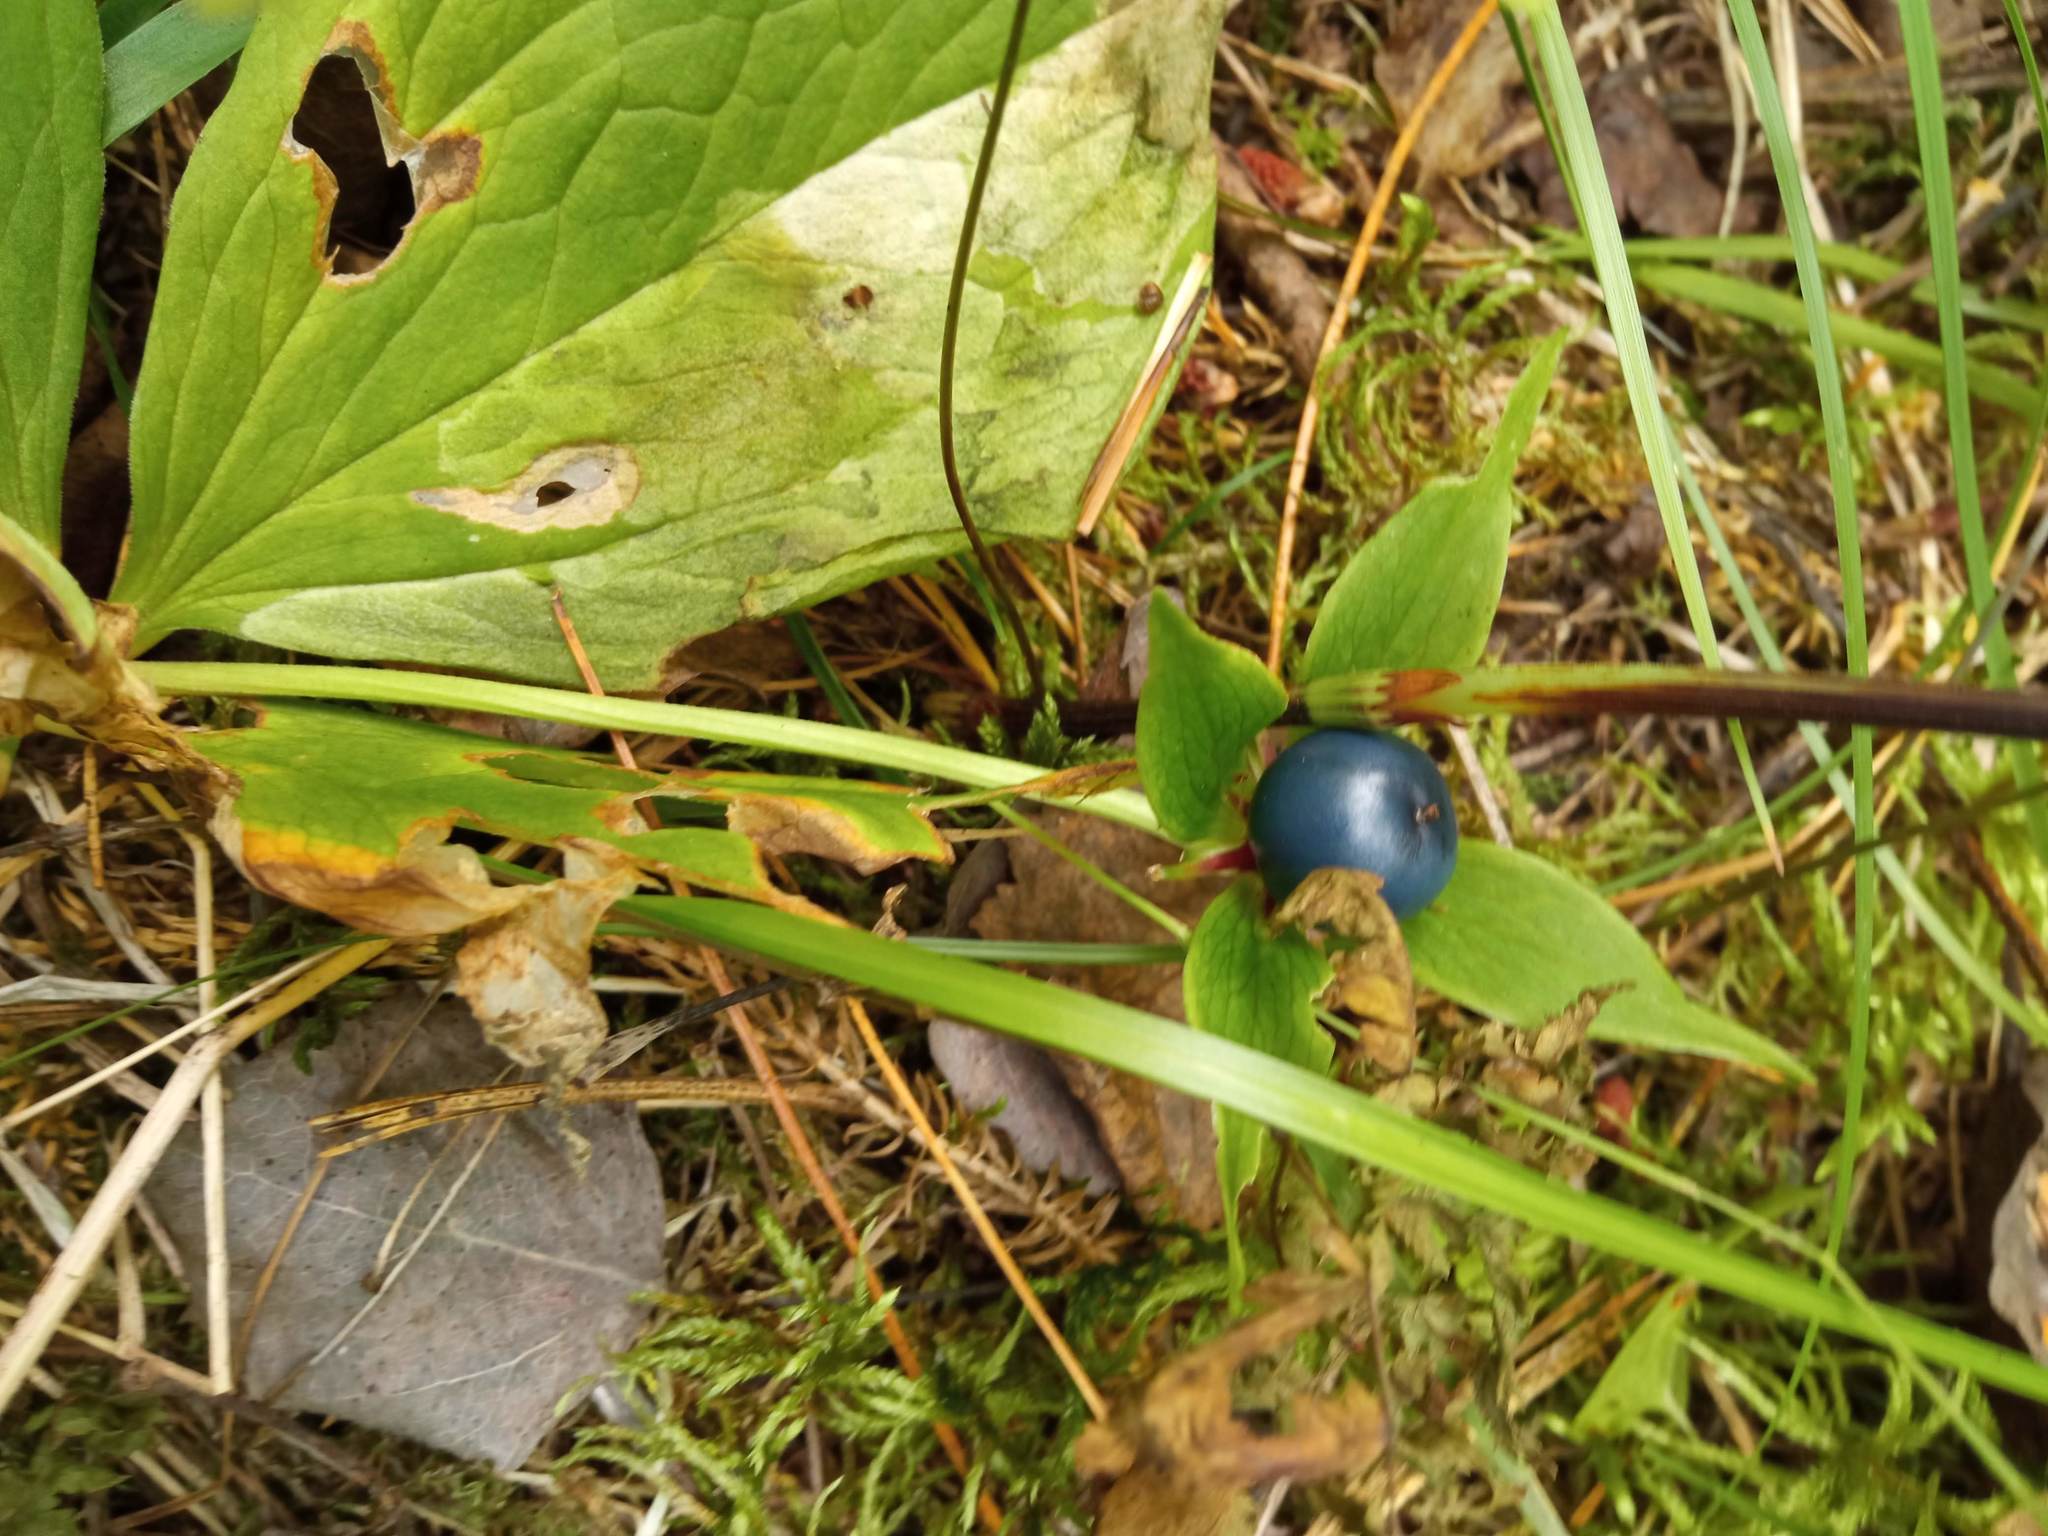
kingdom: Plantae
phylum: Tracheophyta
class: Liliopsida
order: Liliales
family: Melanthiaceae
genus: Paris
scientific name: Paris quadrifolia
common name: Herb-paris
